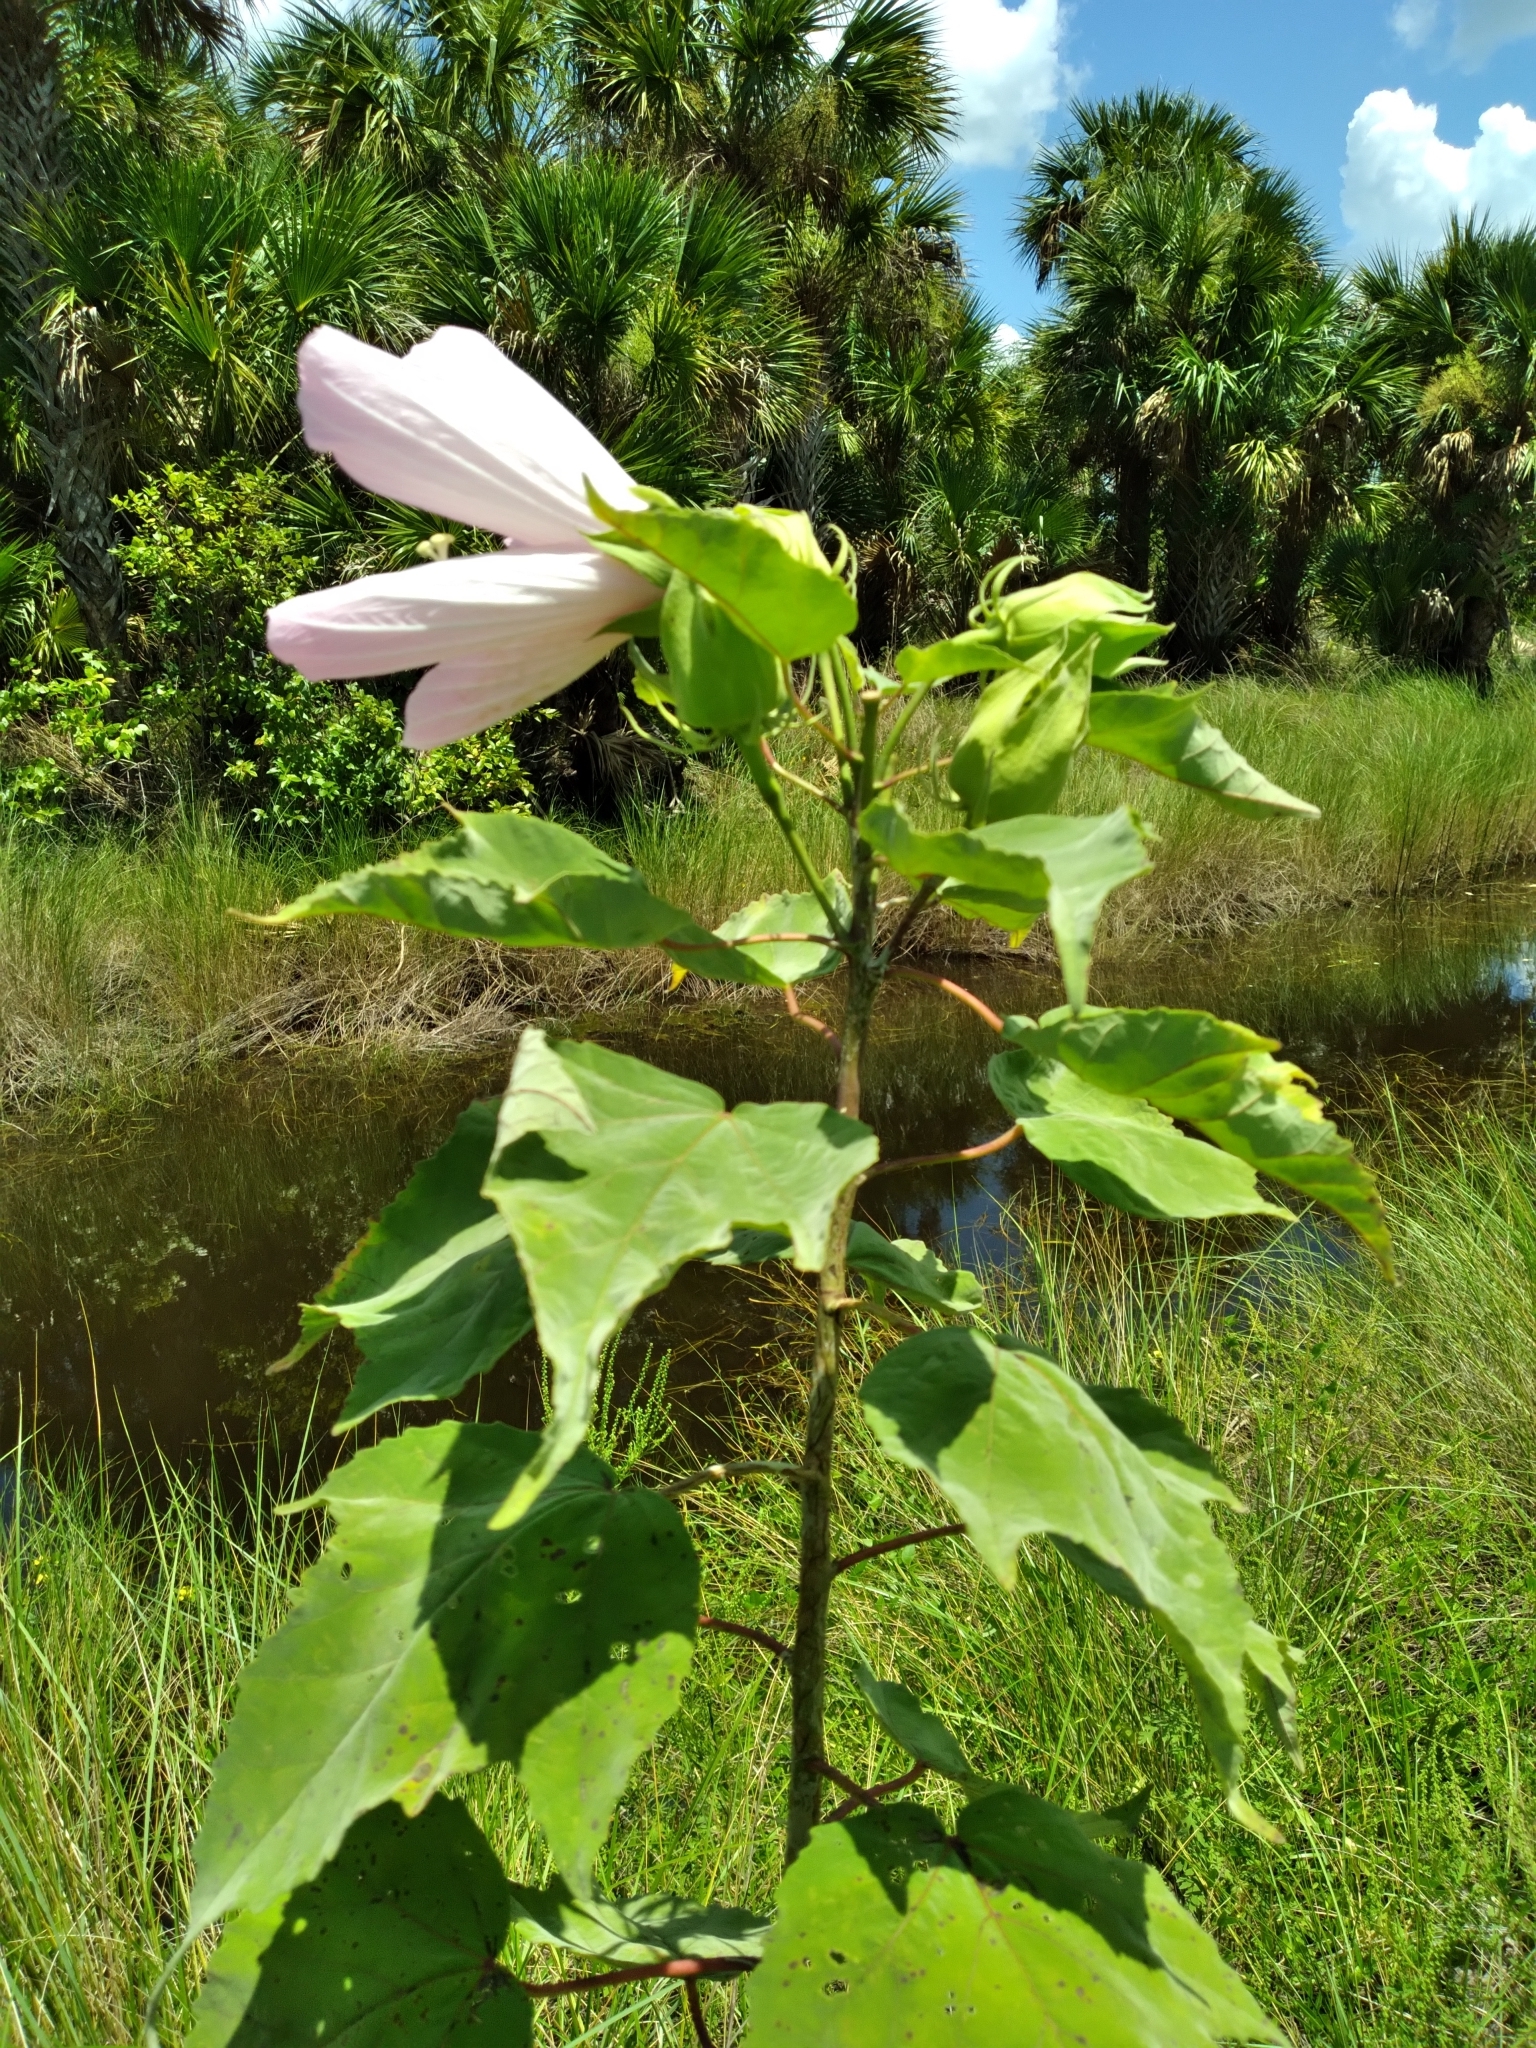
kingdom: Plantae
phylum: Tracheophyta
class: Magnoliopsida
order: Malvales
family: Malvaceae
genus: Hibiscus
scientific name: Hibiscus grandiflorus
